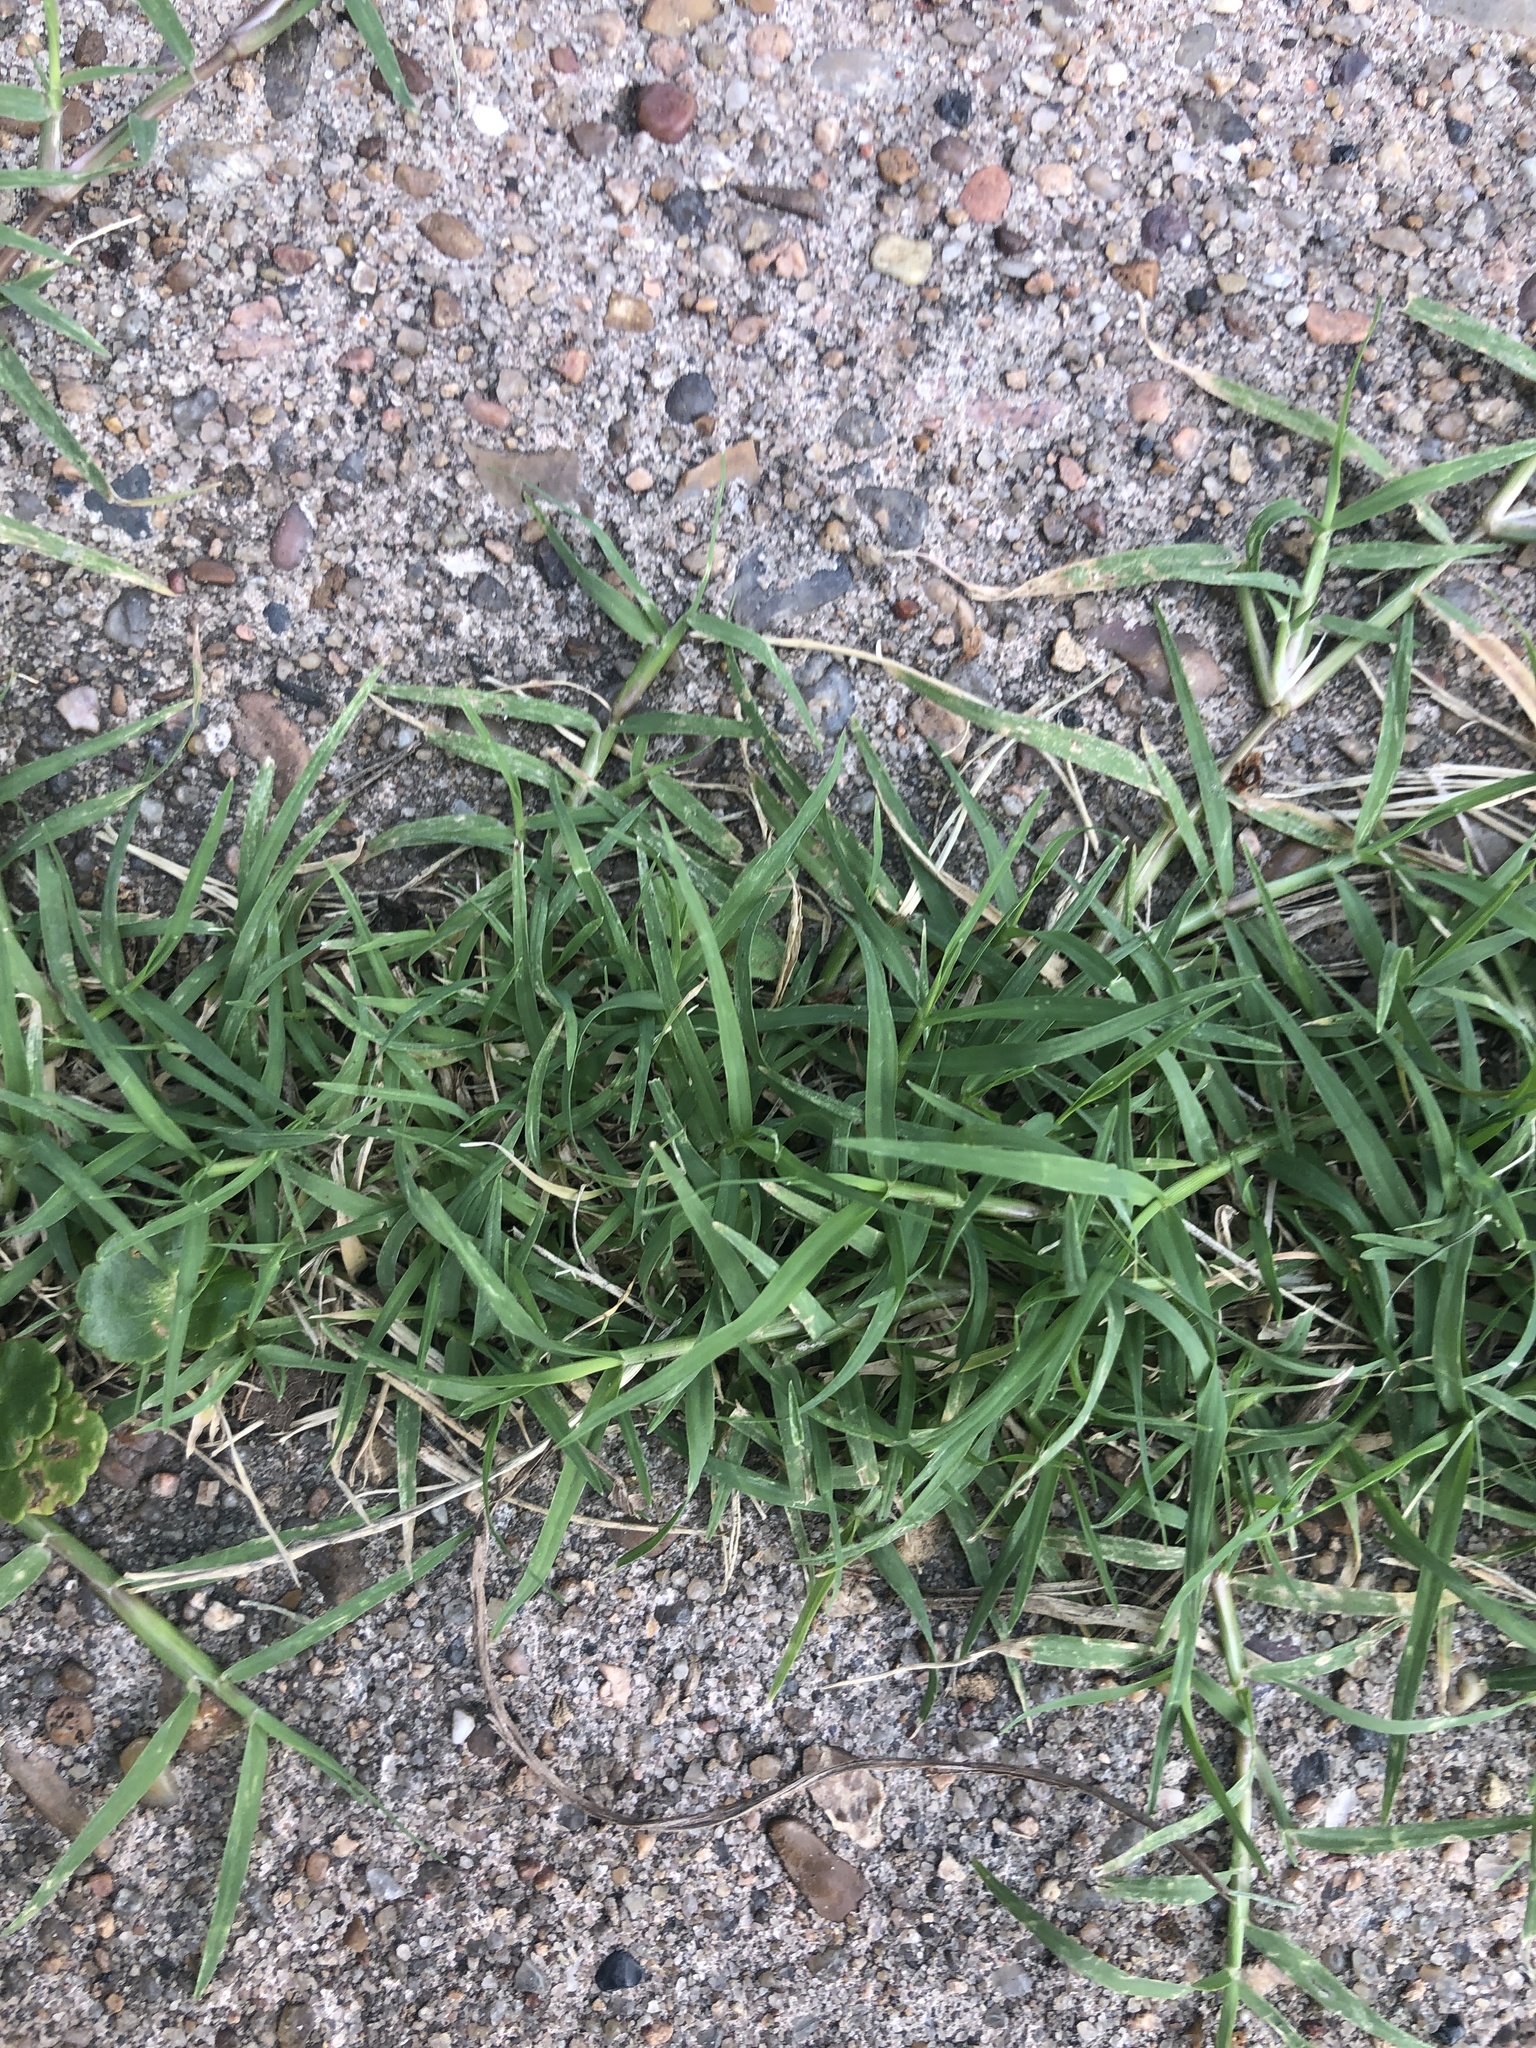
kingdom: Plantae
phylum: Tracheophyta
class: Liliopsida
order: Poales
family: Poaceae
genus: Cynodon
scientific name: Cynodon dactylon
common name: Bermuda grass
